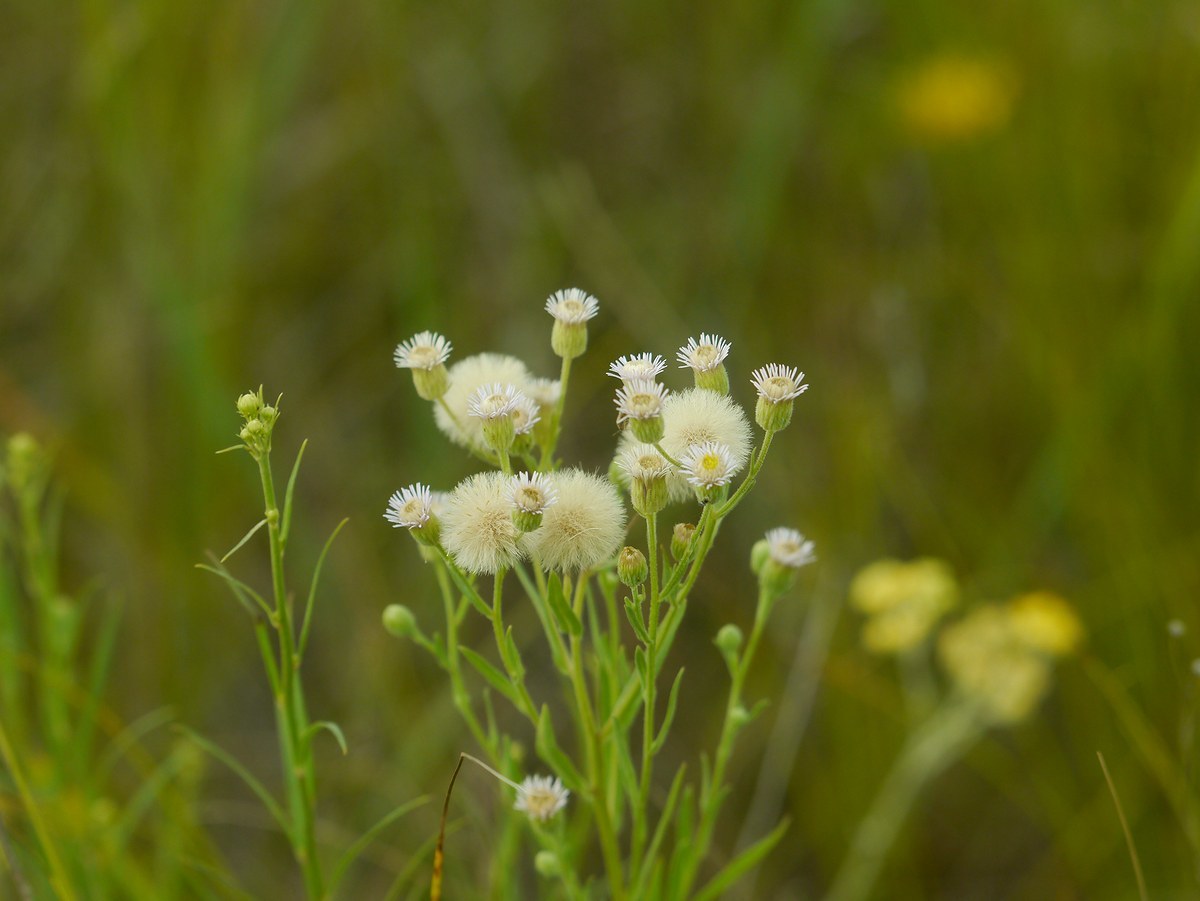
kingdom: Plantae
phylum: Tracheophyta
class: Magnoliopsida
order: Asterales
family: Asteraceae
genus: Erigeron
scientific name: Erigeron annuus
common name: Tall fleabane
